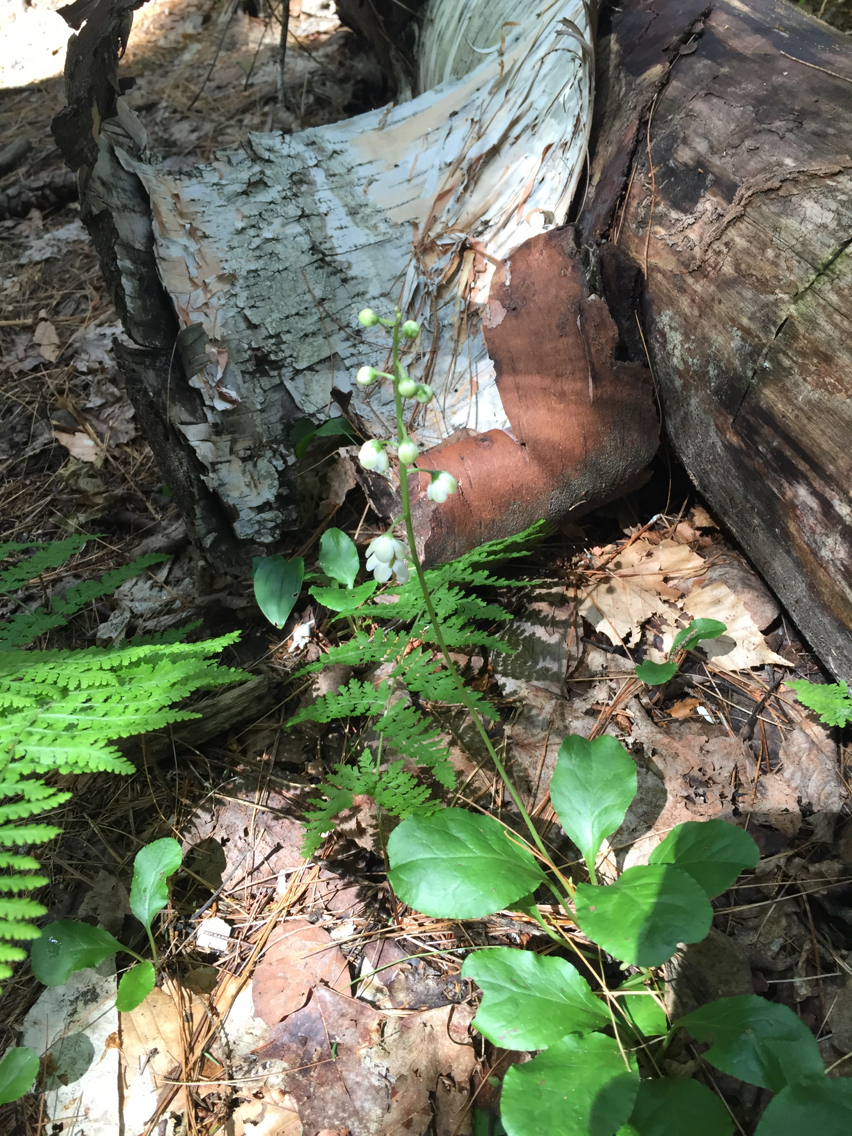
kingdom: Plantae
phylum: Tracheophyta
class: Magnoliopsida
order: Ericales
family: Ericaceae
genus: Pyrola
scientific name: Pyrola elliptica
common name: Shinleaf
